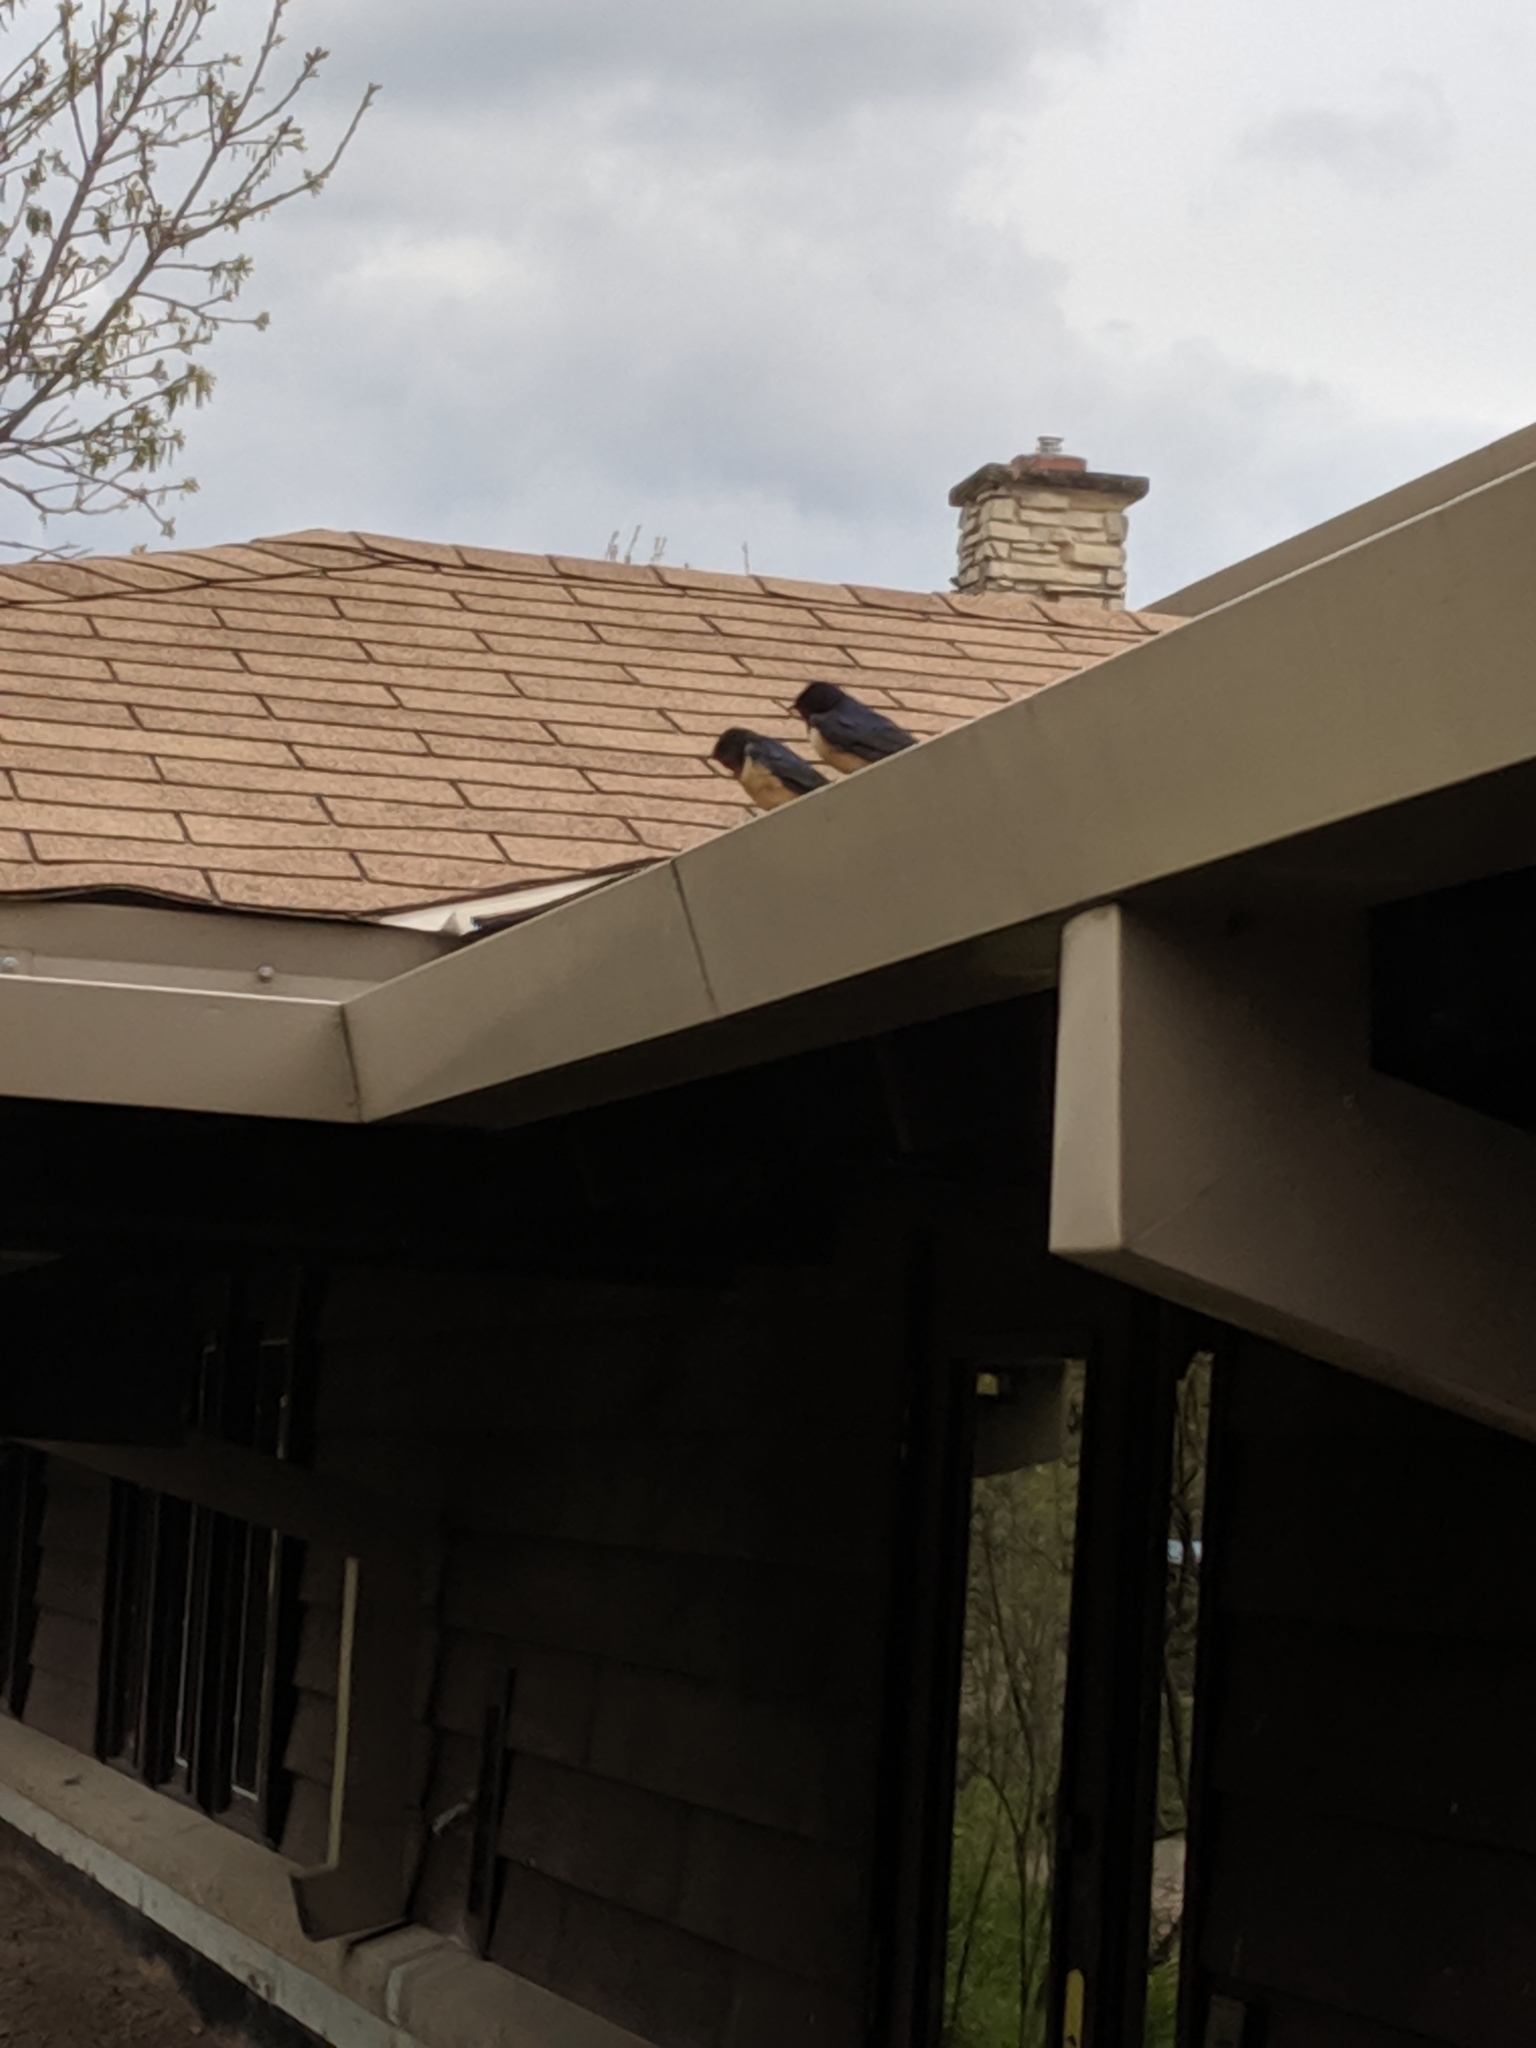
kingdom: Animalia
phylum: Chordata
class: Aves
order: Passeriformes
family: Hirundinidae
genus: Hirundo
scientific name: Hirundo rustica
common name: Barn swallow
